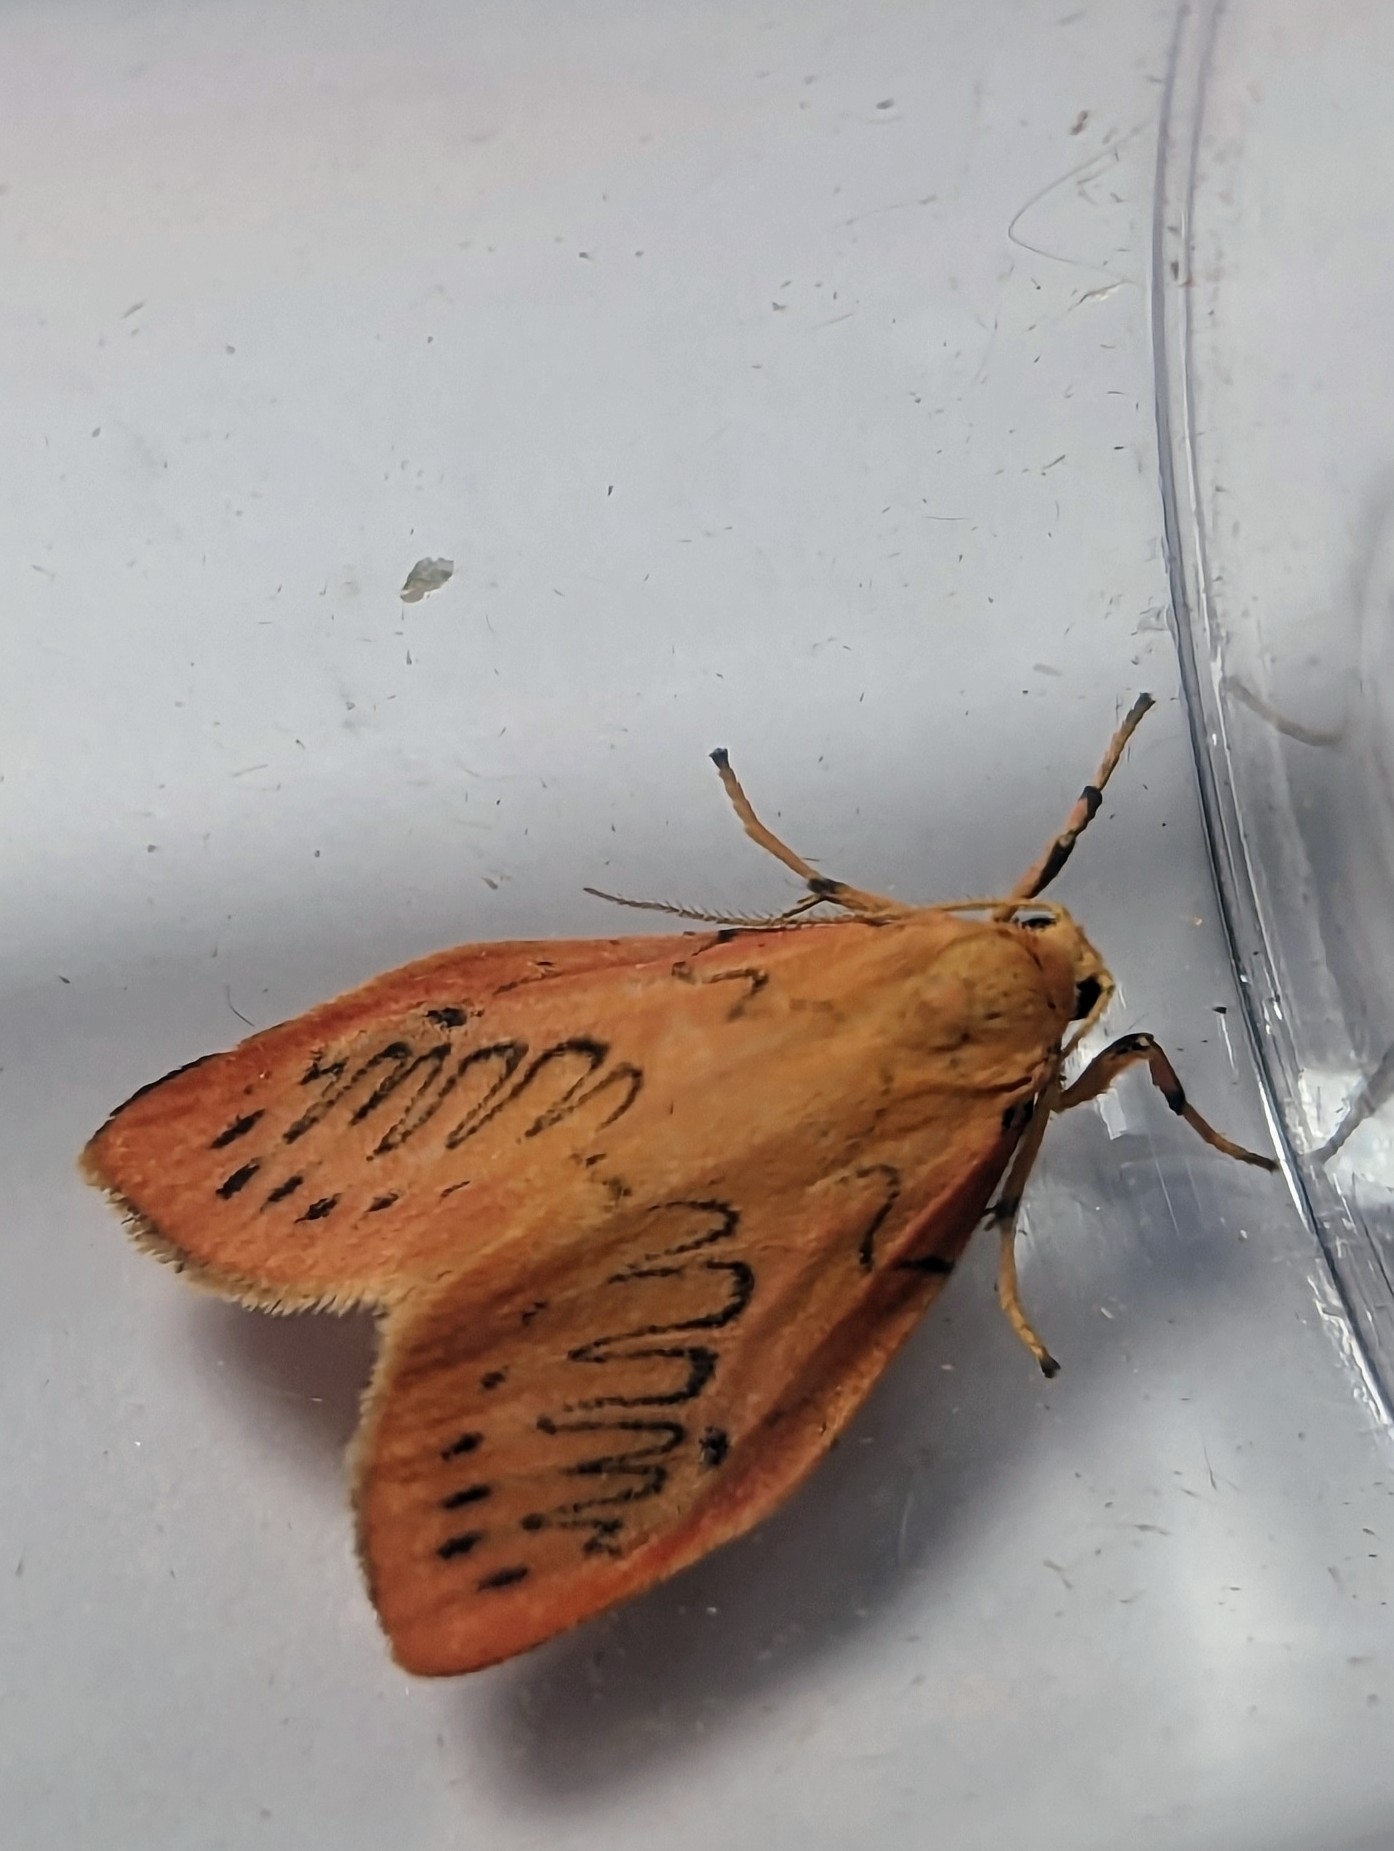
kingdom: Animalia
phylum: Arthropoda
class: Insecta
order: Lepidoptera
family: Erebidae
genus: Miltochrista
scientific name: Miltochrista miniata
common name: Rosy footman
